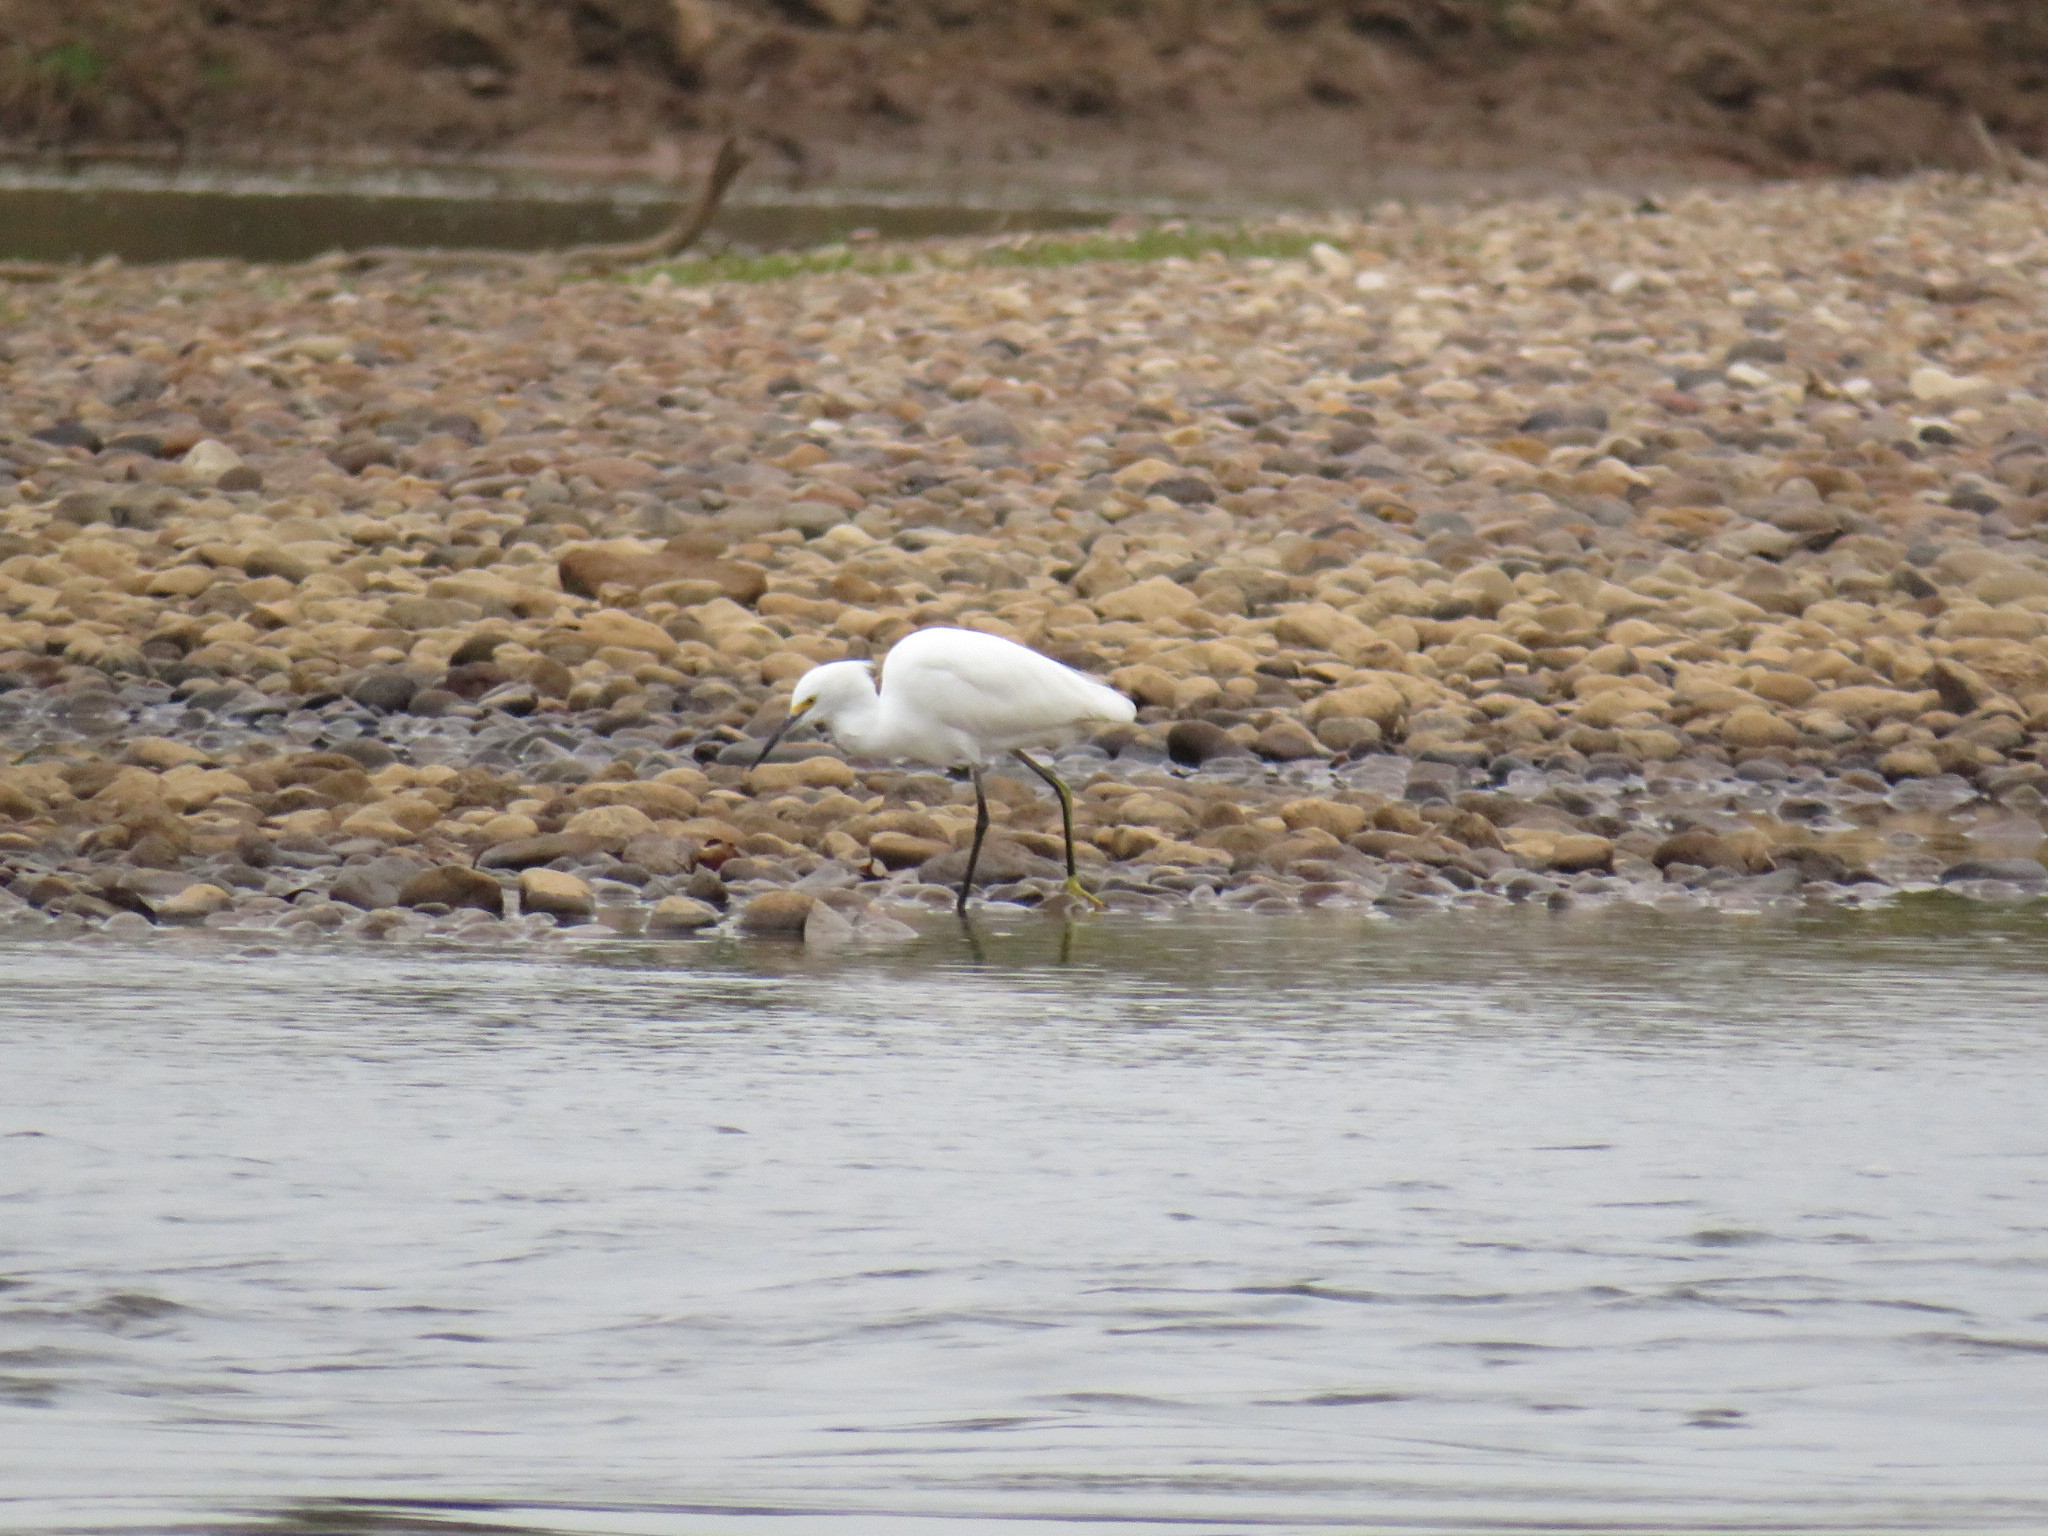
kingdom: Animalia
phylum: Chordata
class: Aves
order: Pelecaniformes
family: Ardeidae
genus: Egretta
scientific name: Egretta thula
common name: Snowy egret
